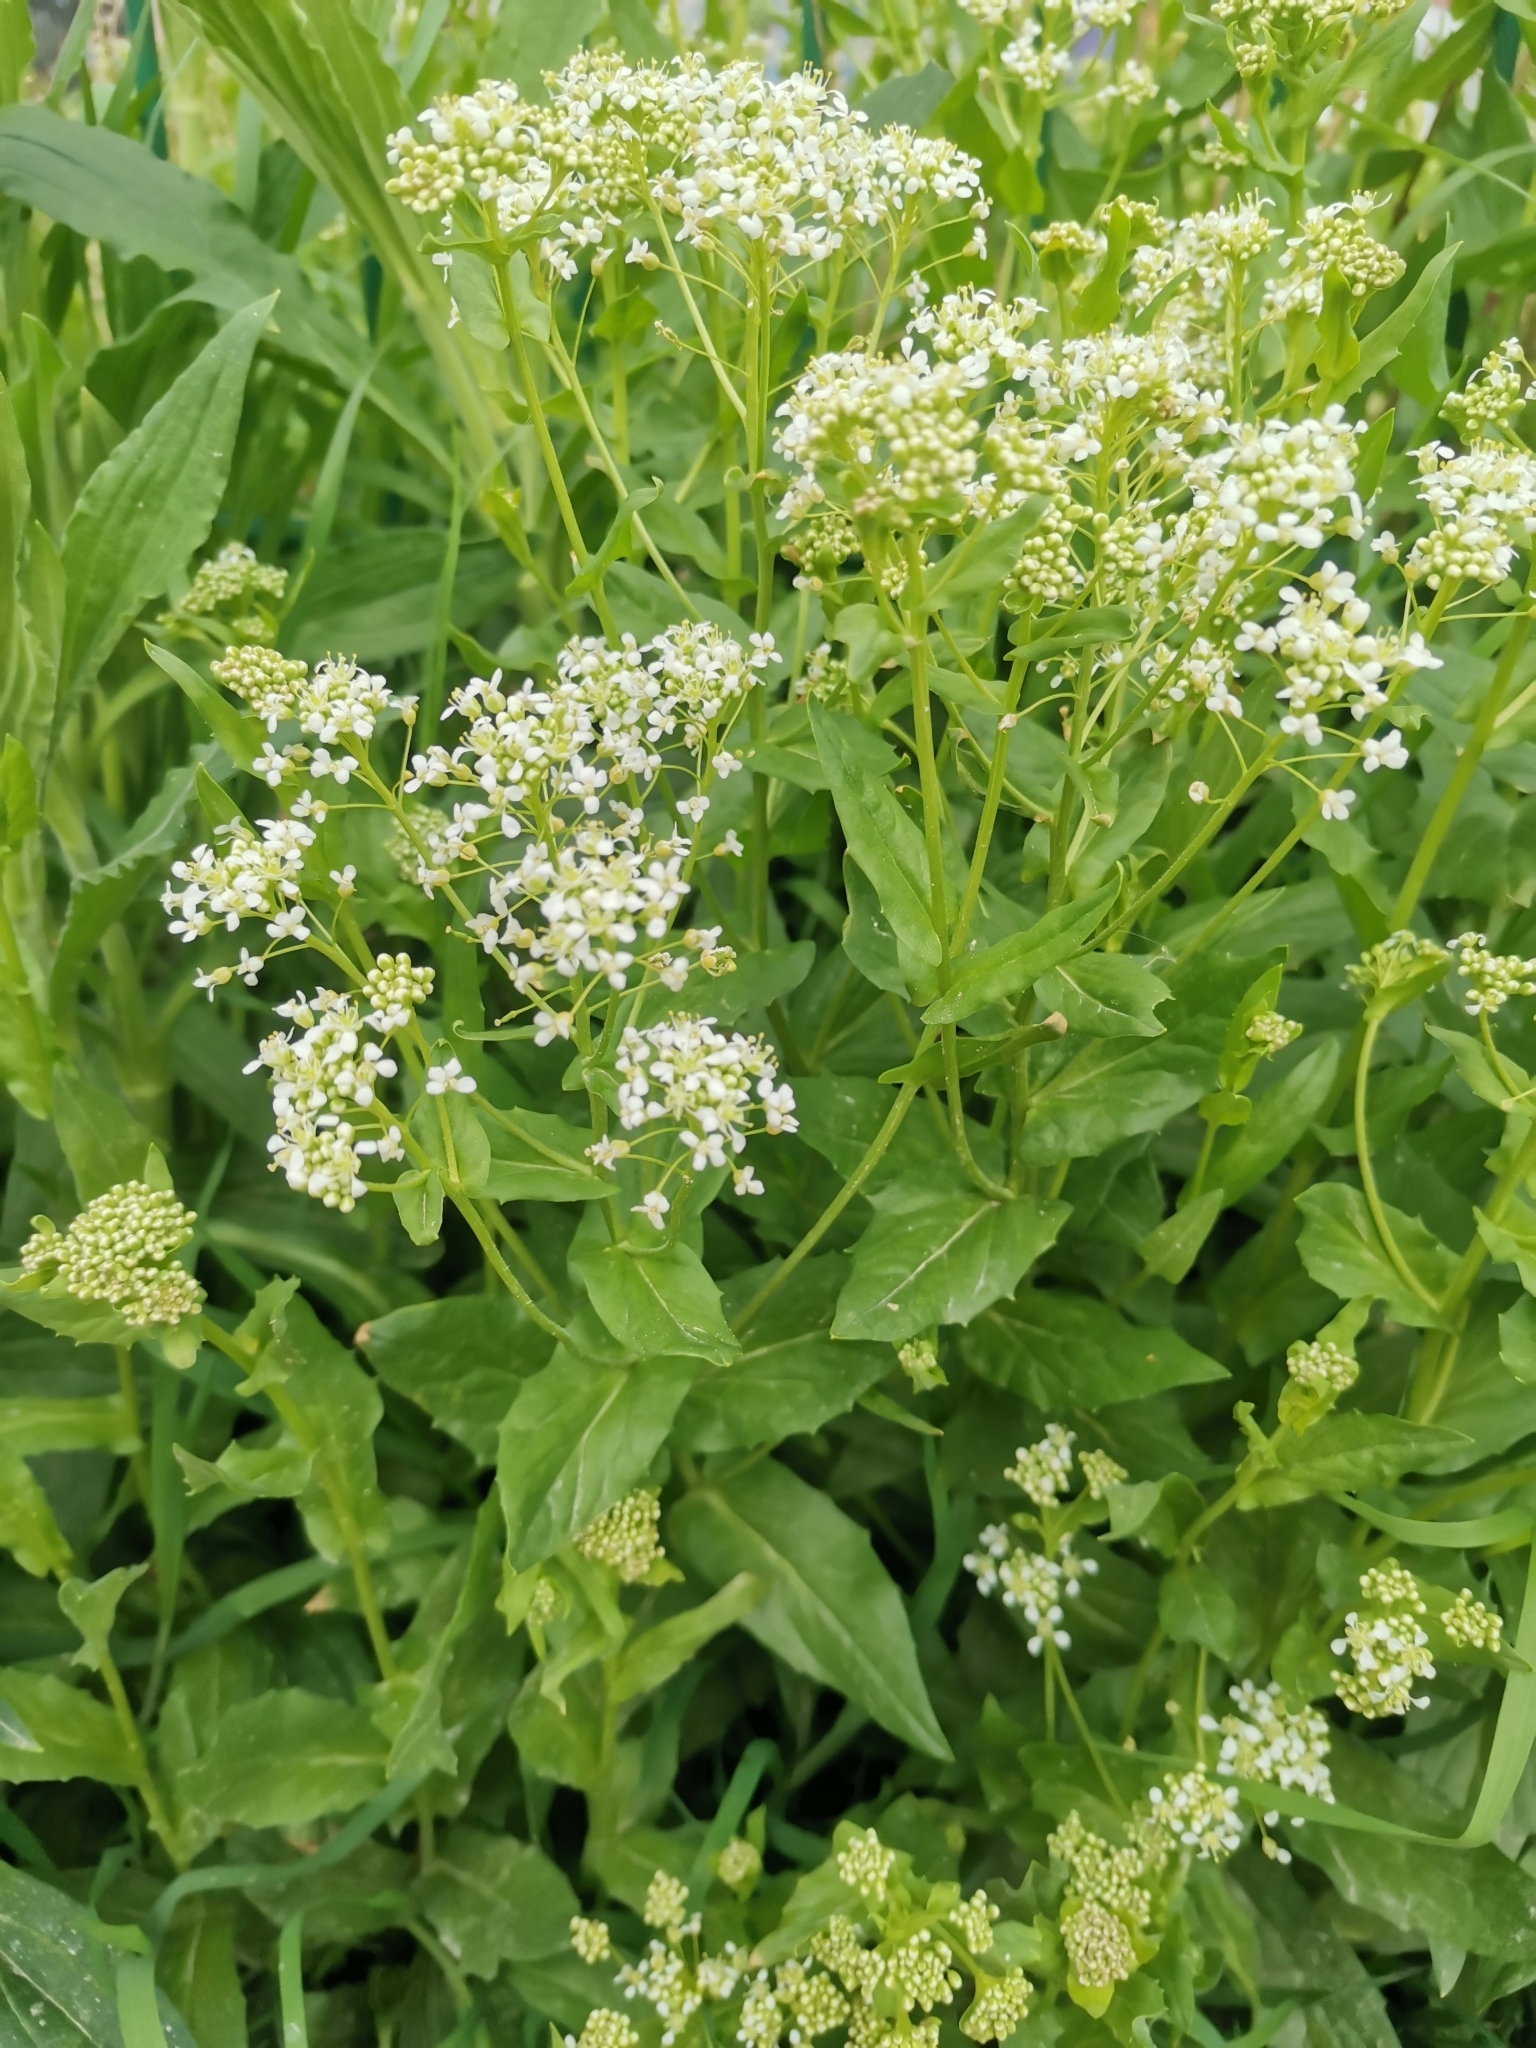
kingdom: Plantae
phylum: Tracheophyta
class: Magnoliopsida
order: Brassicales
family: Brassicaceae
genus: Lepidium
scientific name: Lepidium draba
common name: Hoary cress
